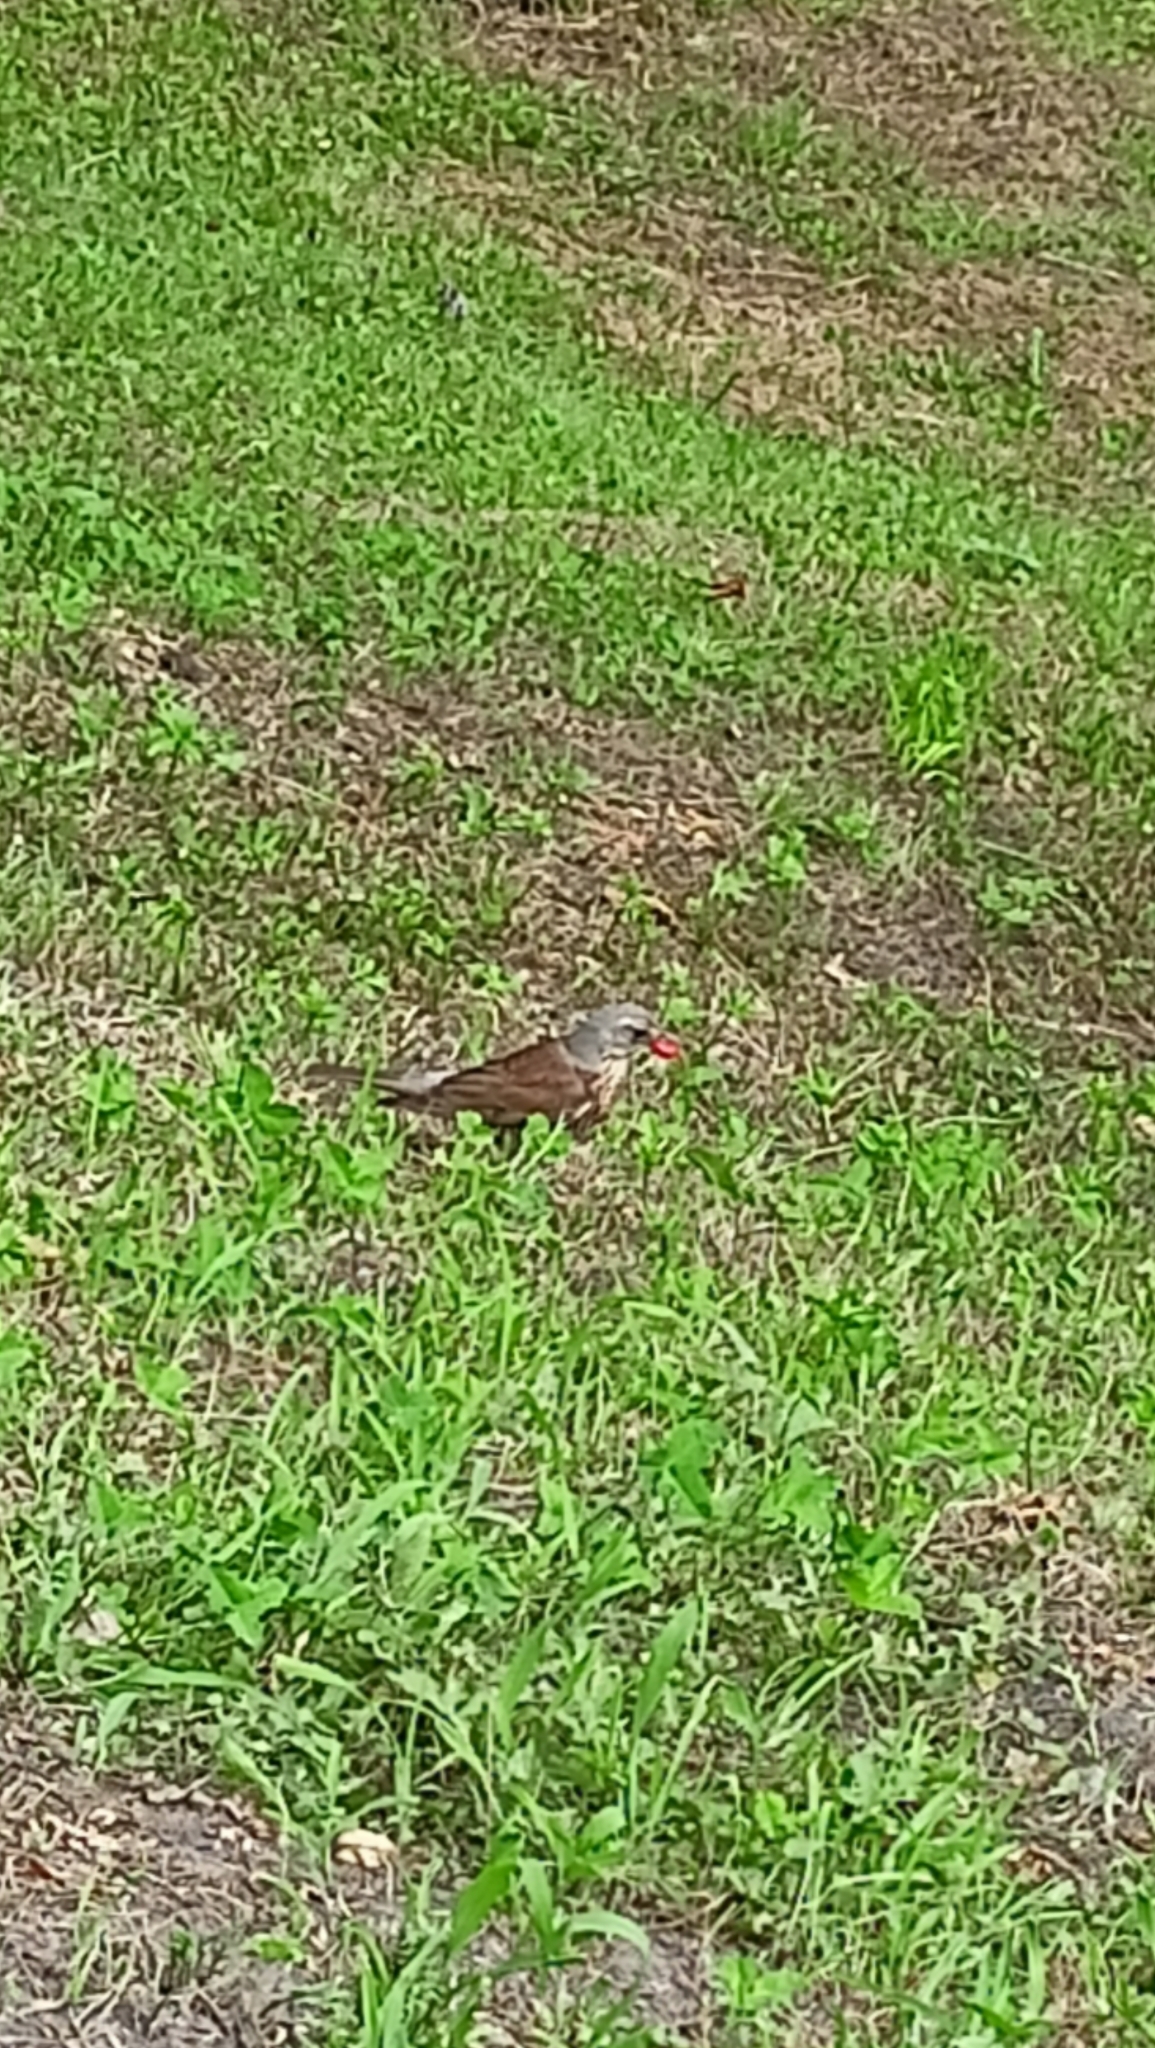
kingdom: Animalia
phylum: Chordata
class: Aves
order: Passeriformes
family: Turdidae
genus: Turdus
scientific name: Turdus pilaris
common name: Fieldfare
